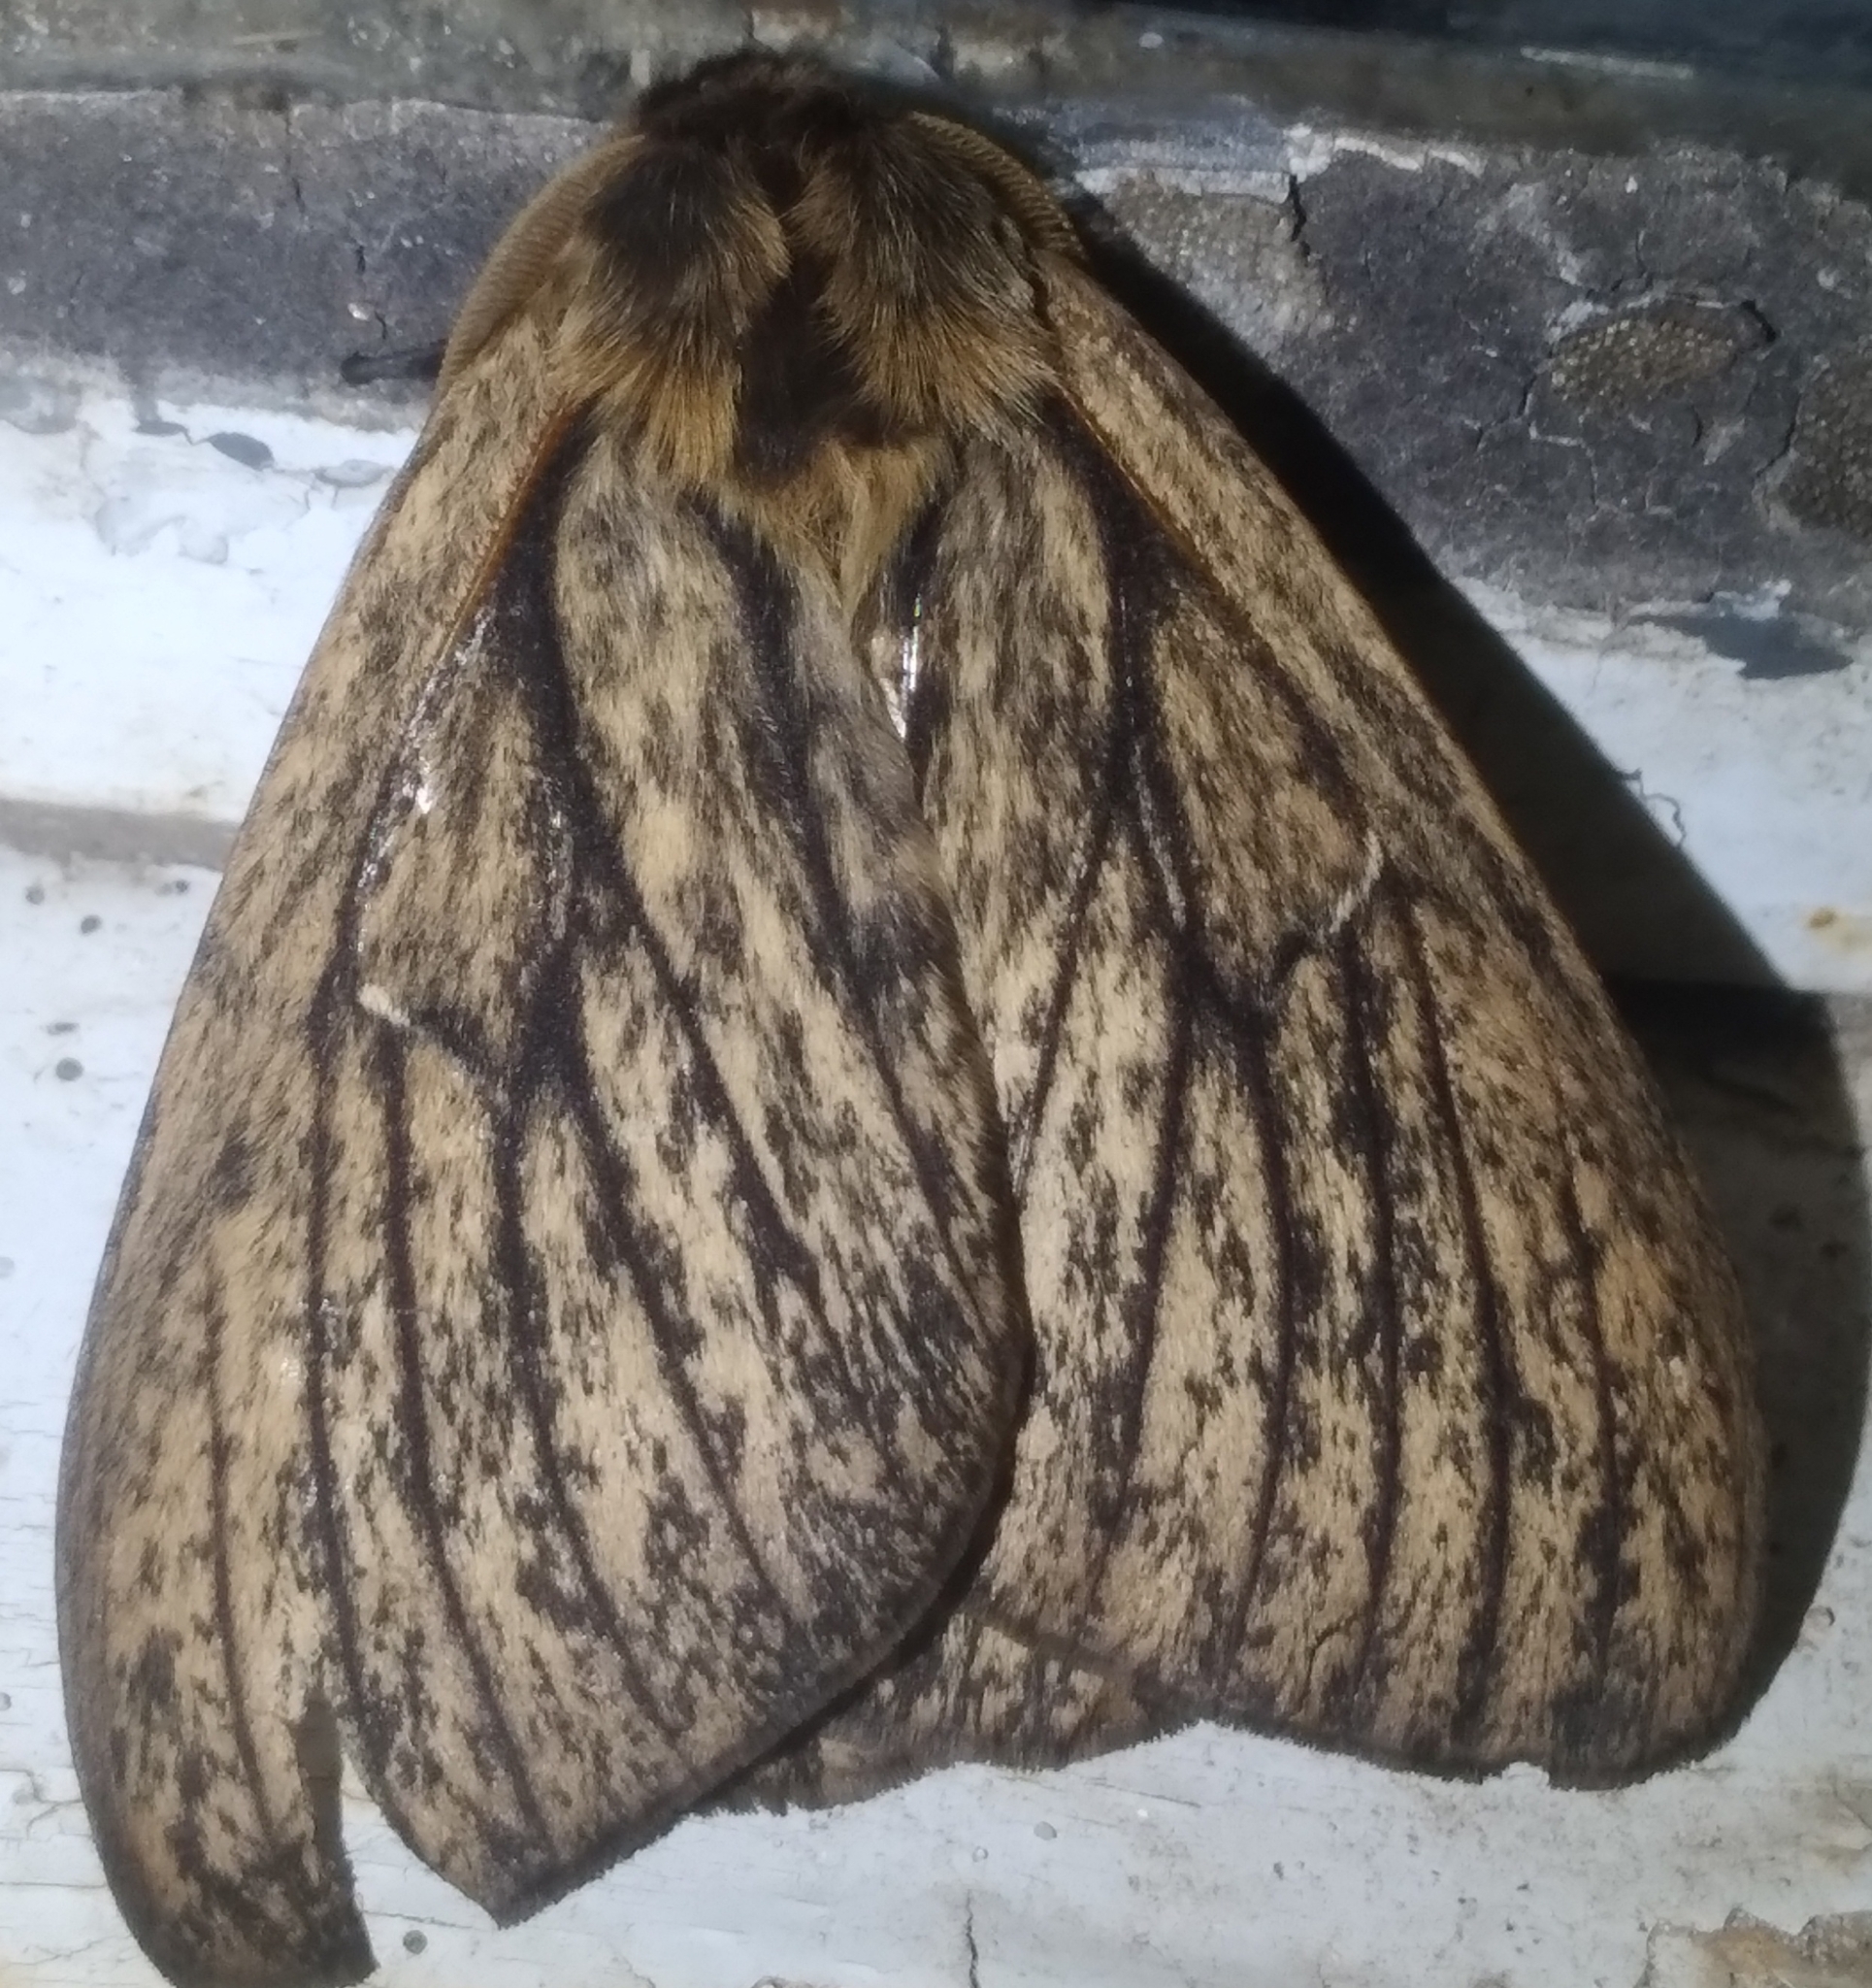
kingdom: Animalia
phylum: Arthropoda
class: Insecta
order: Lepidoptera
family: Saturniidae
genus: Eudyaria
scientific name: Eudyaria zeta
